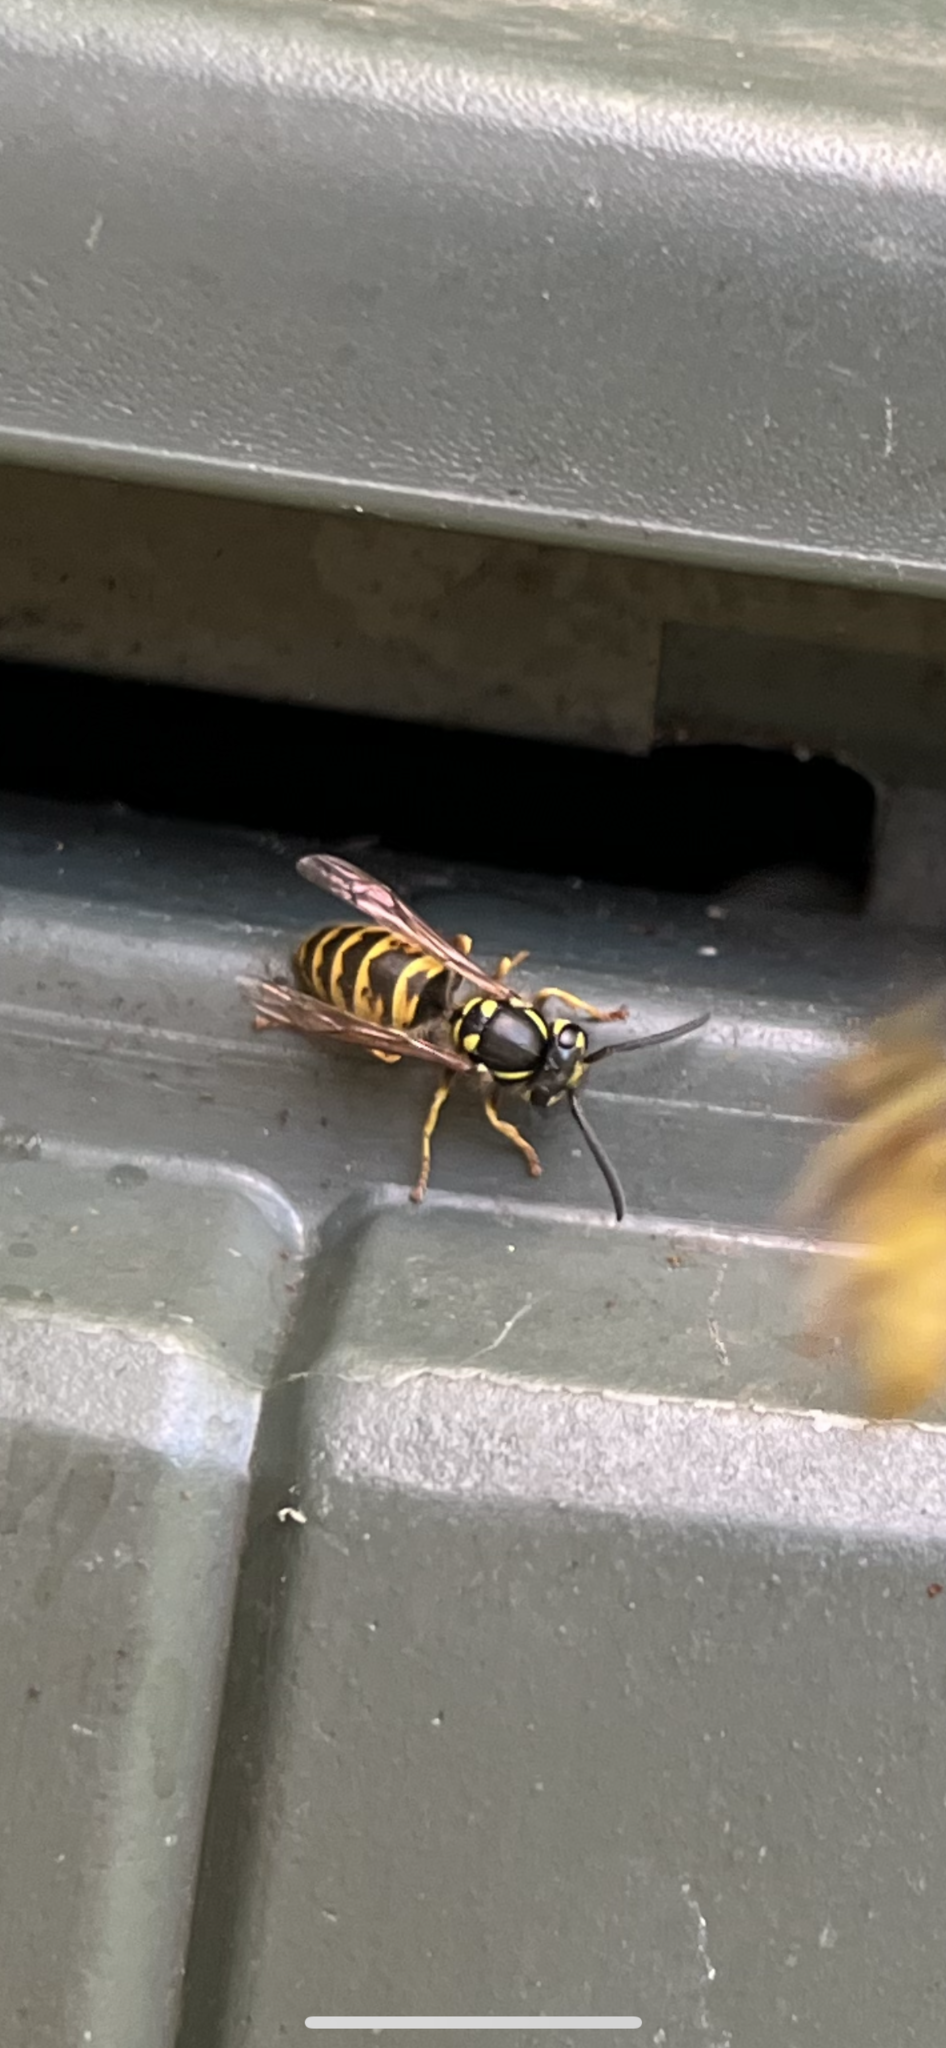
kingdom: Animalia
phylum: Arthropoda
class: Insecta
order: Hymenoptera
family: Vespidae
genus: Vespula
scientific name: Vespula vulgaris
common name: Common wasp
